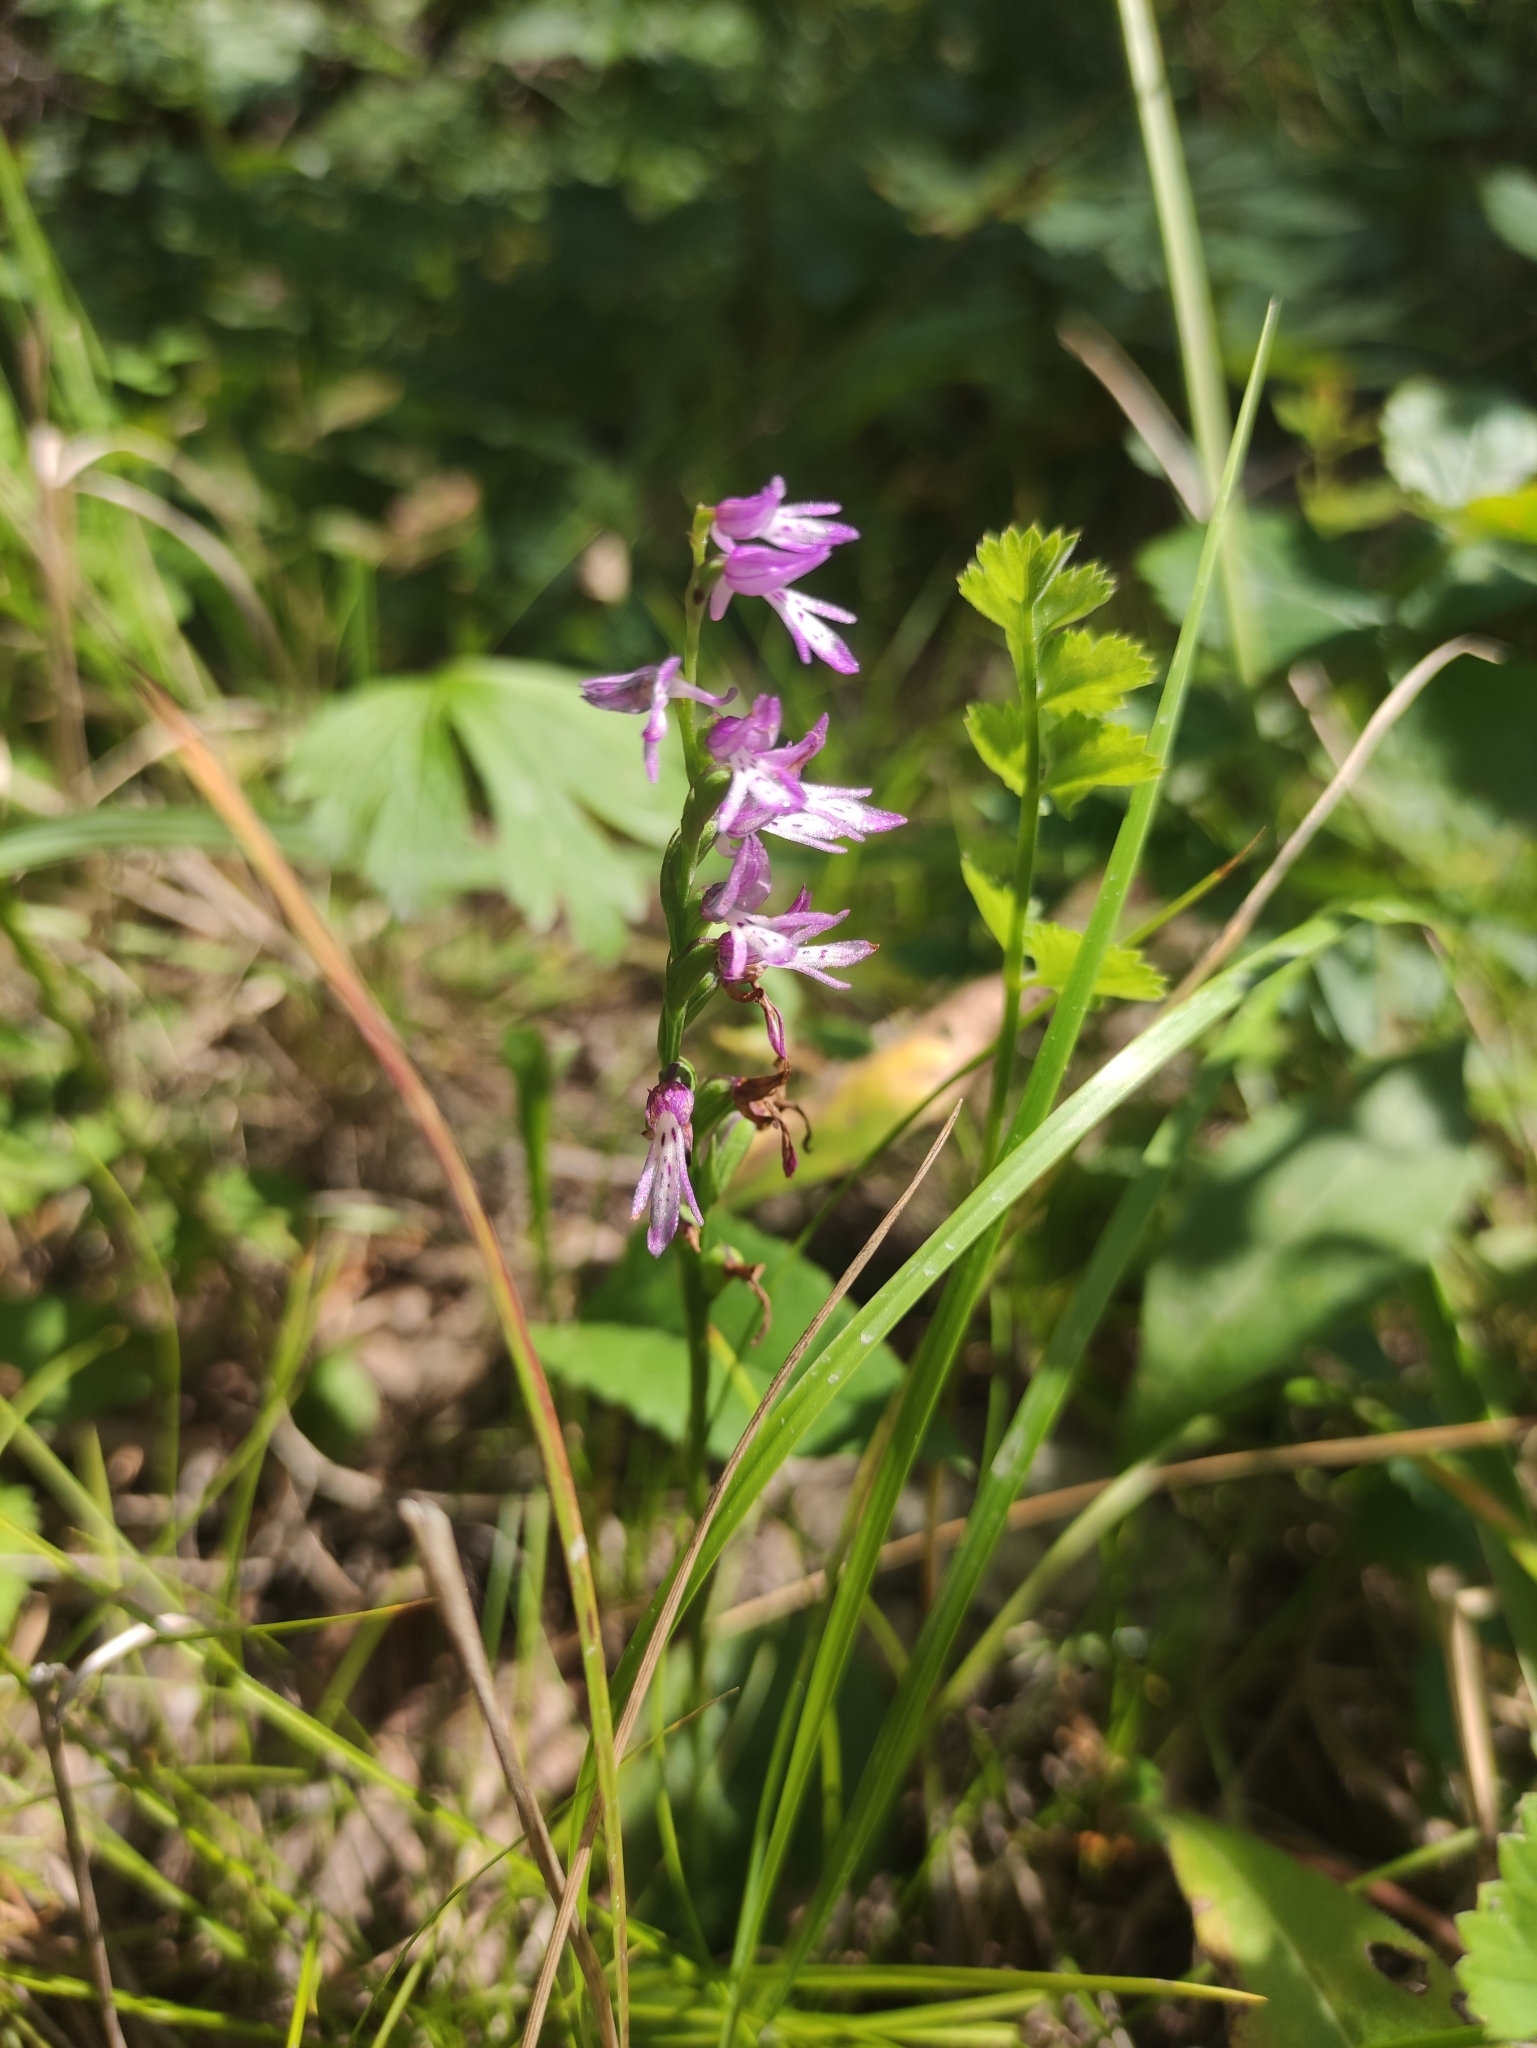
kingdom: Plantae
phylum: Tracheophyta
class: Liliopsida
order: Asparagales
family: Orchidaceae
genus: Hemipilia
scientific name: Hemipilia cucullata
